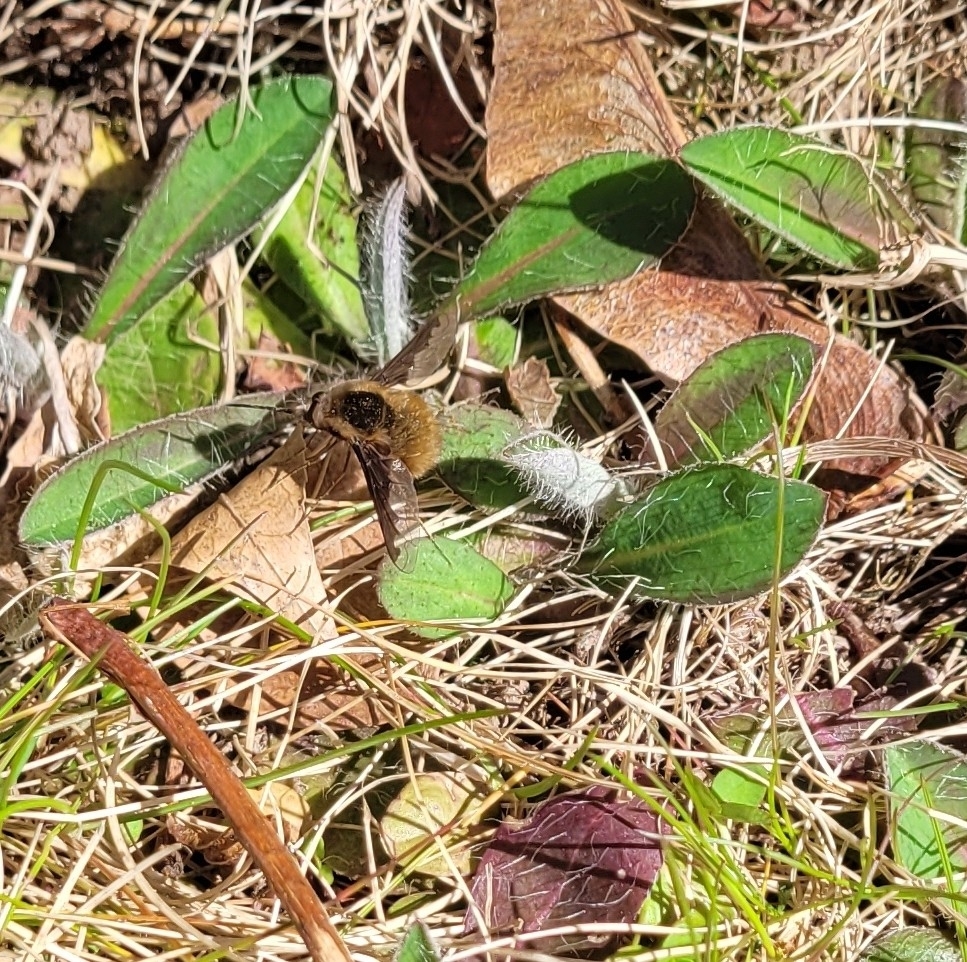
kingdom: Animalia
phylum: Arthropoda
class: Insecta
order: Diptera
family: Bombyliidae
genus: Bombylius
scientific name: Bombylius major
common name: Bee fly
